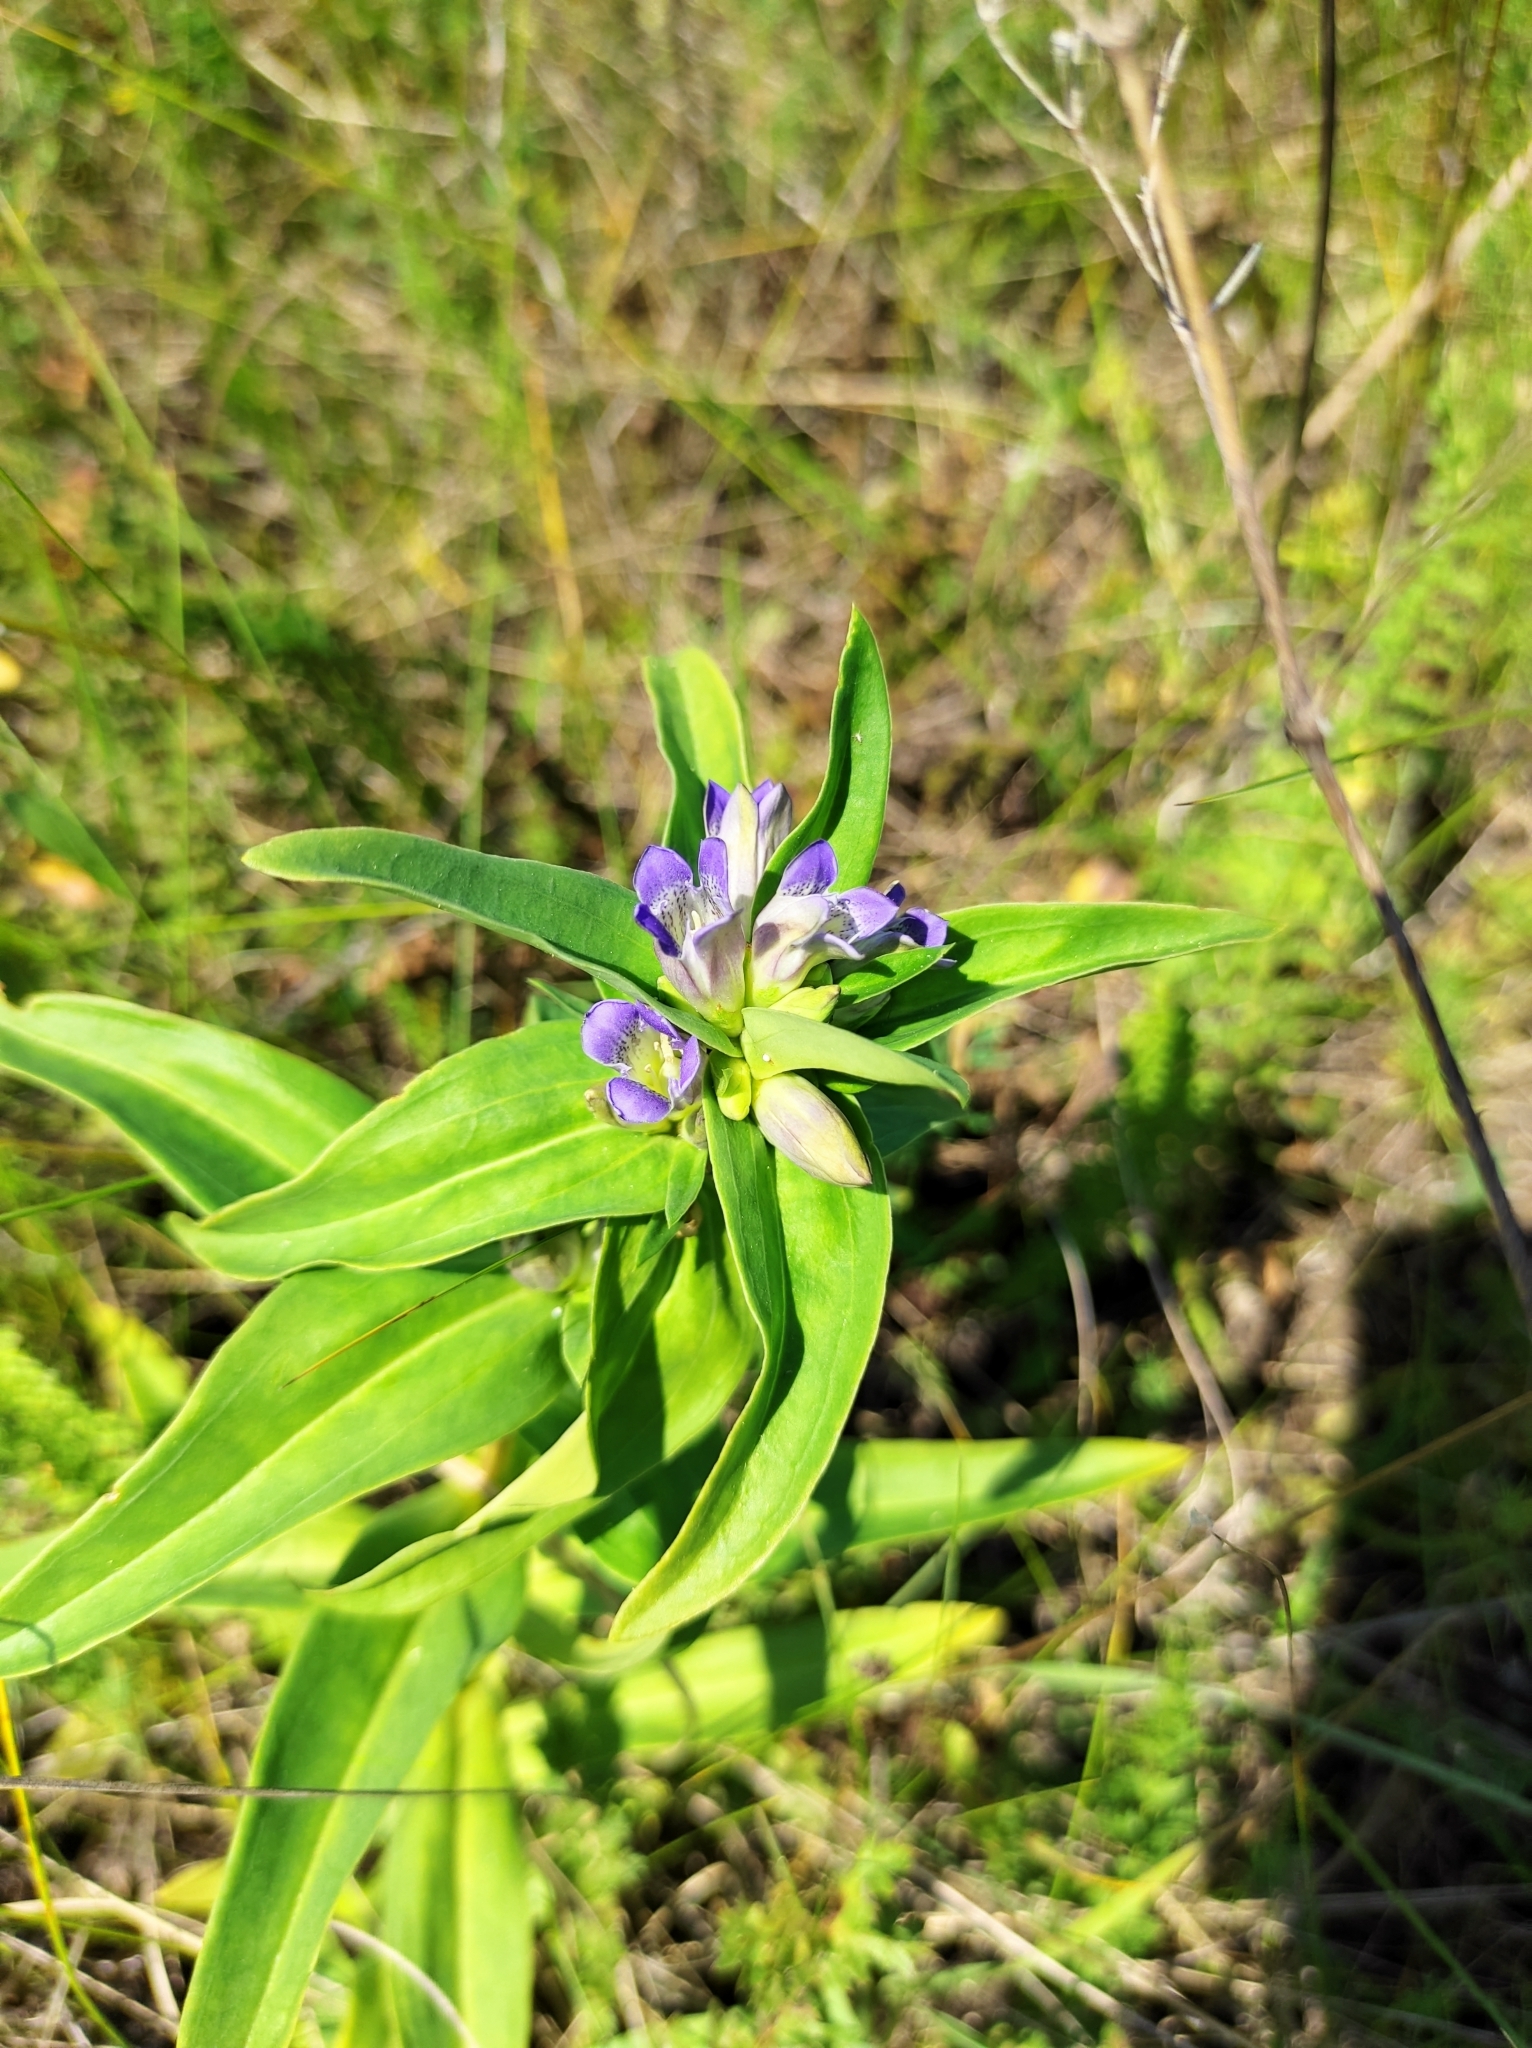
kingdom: Plantae
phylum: Tracheophyta
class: Magnoliopsida
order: Gentianales
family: Gentianaceae
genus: Gentiana
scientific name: Gentiana cruciata
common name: Cross gentian
